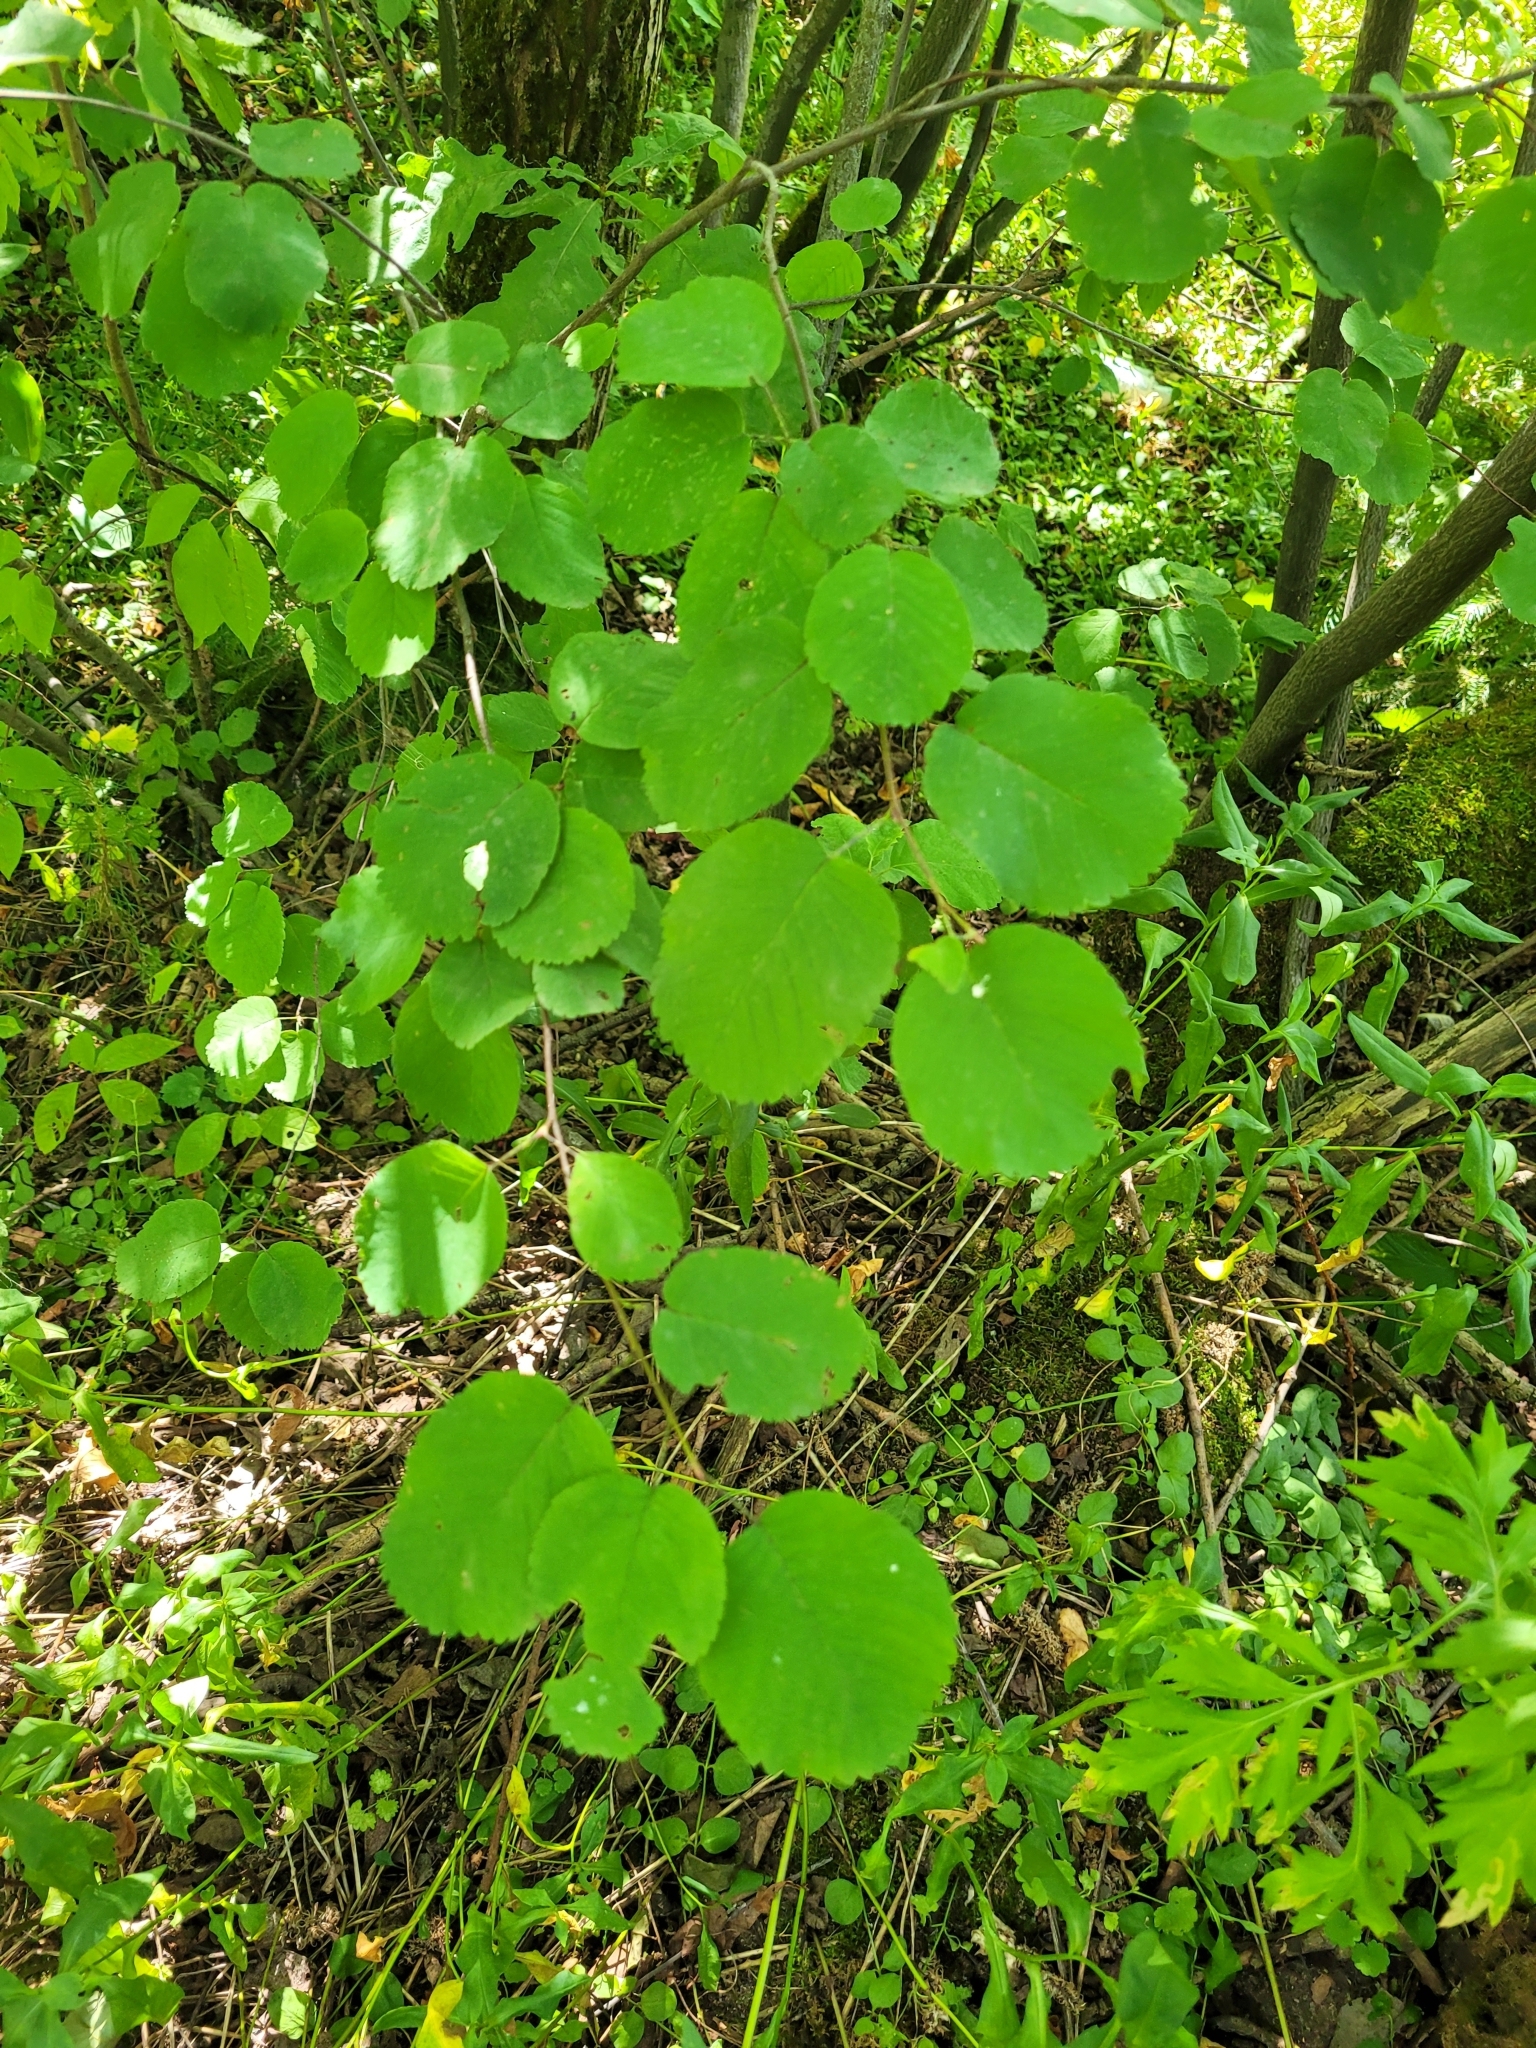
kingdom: Plantae
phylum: Tracheophyta
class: Magnoliopsida
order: Rosales
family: Rosaceae
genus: Amelanchier
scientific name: Amelanchier alnifolia
